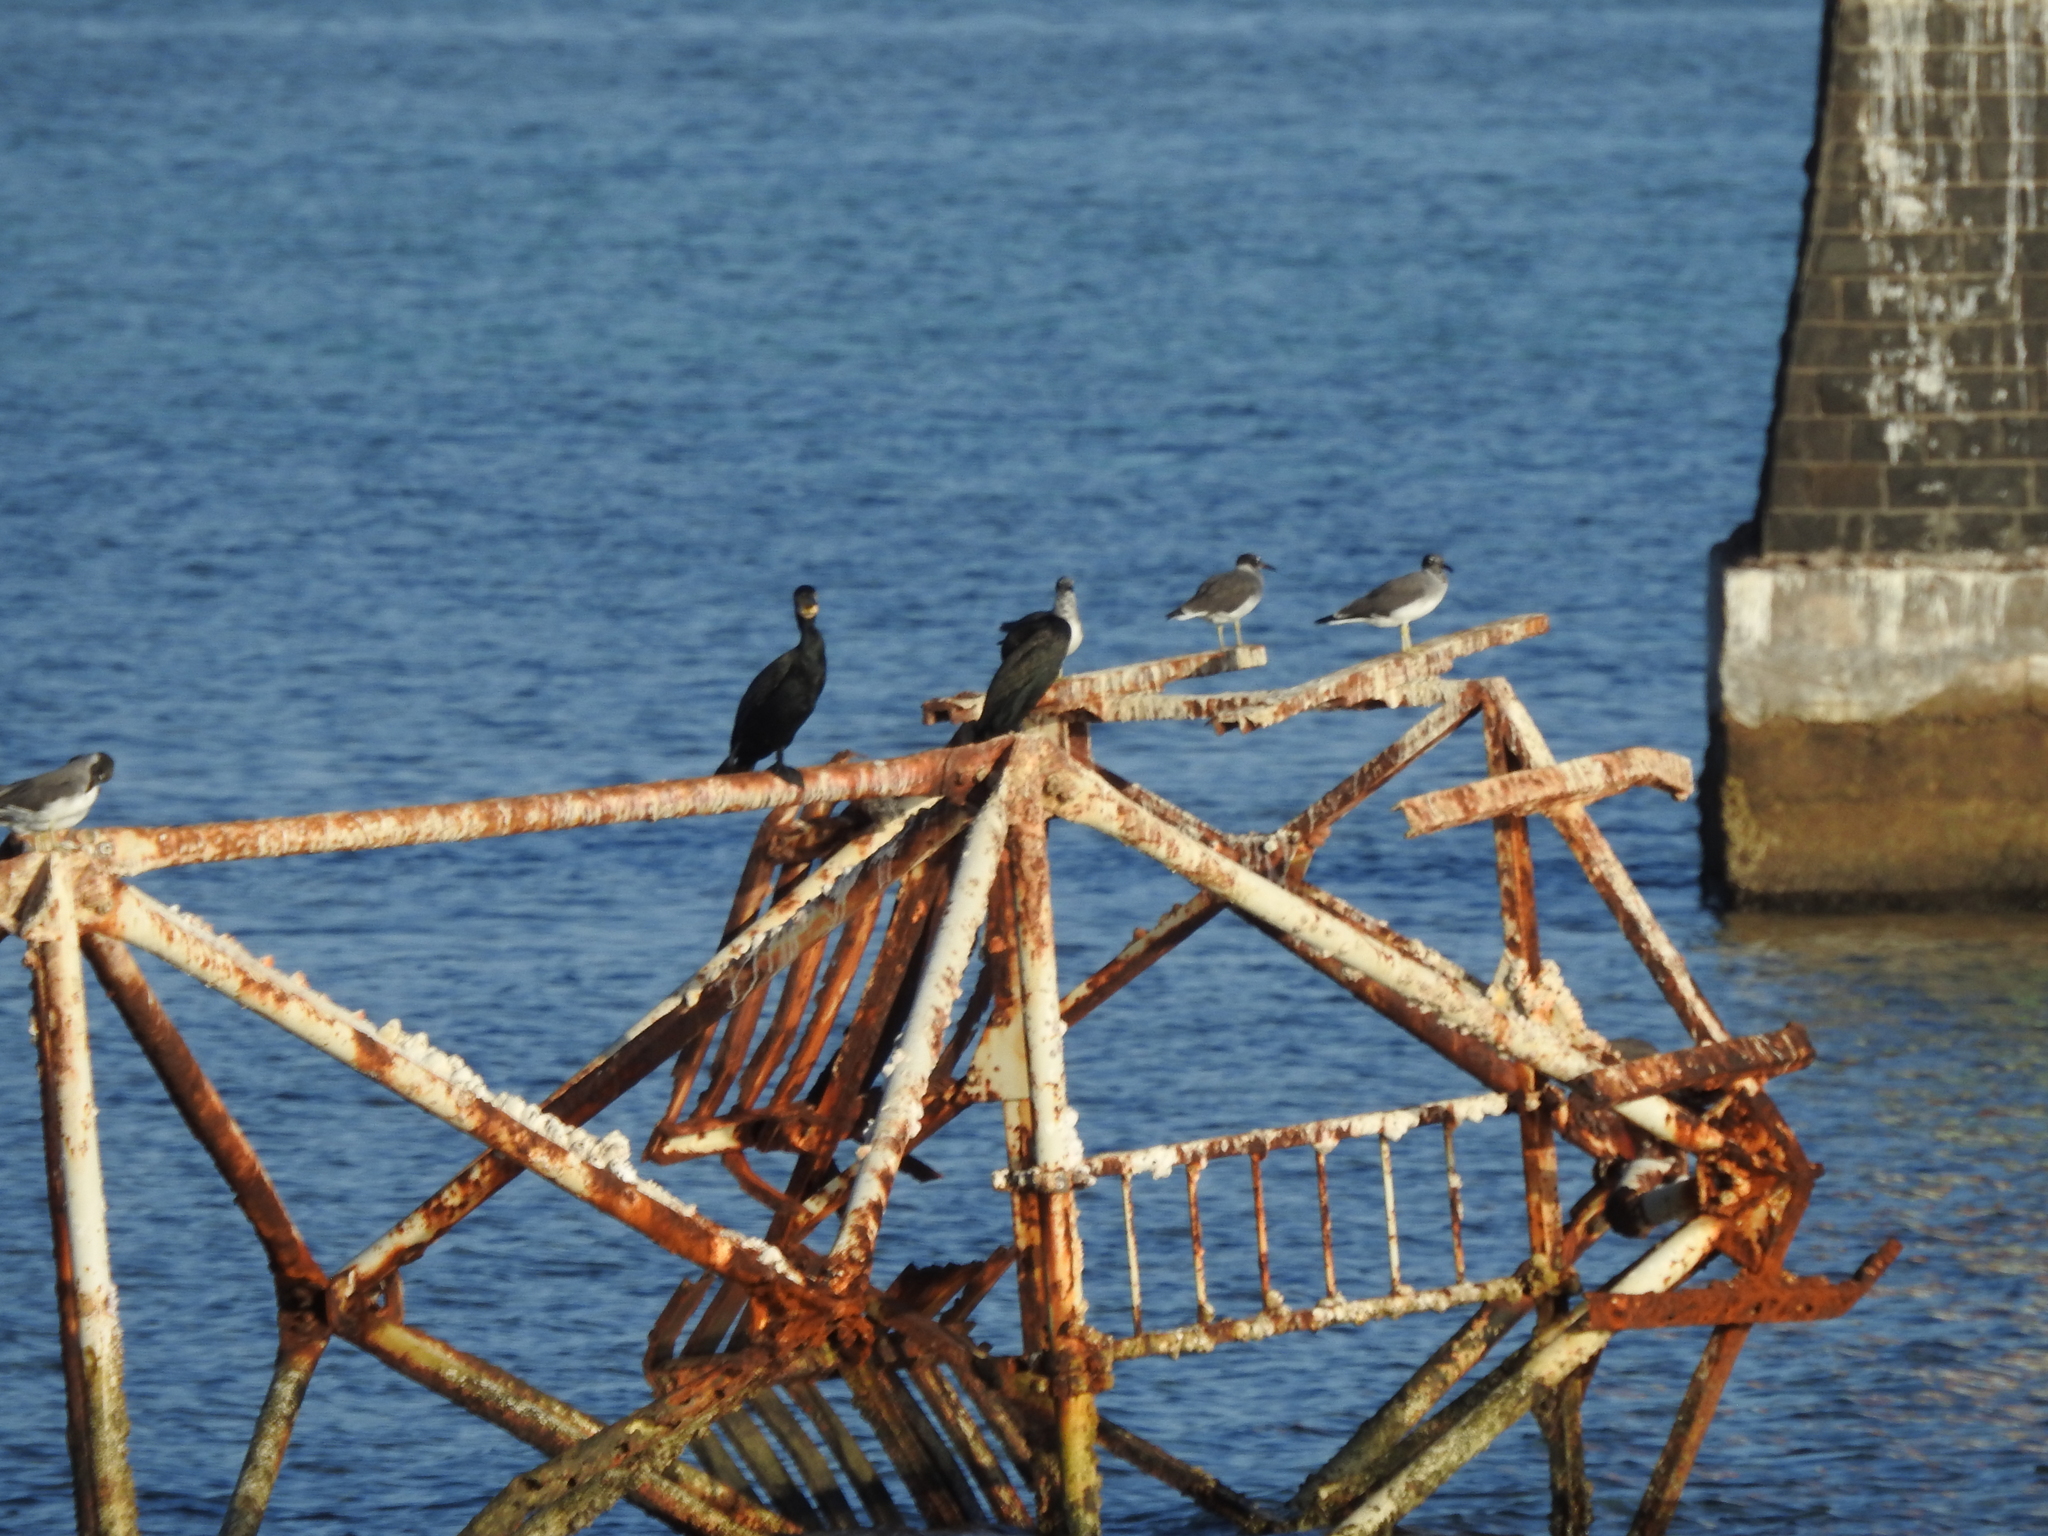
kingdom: Animalia
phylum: Chordata
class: Aves
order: Suliformes
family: Phalacrocoracidae
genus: Phalacrocorax
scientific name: Phalacrocorax carbo
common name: Great cormorant
